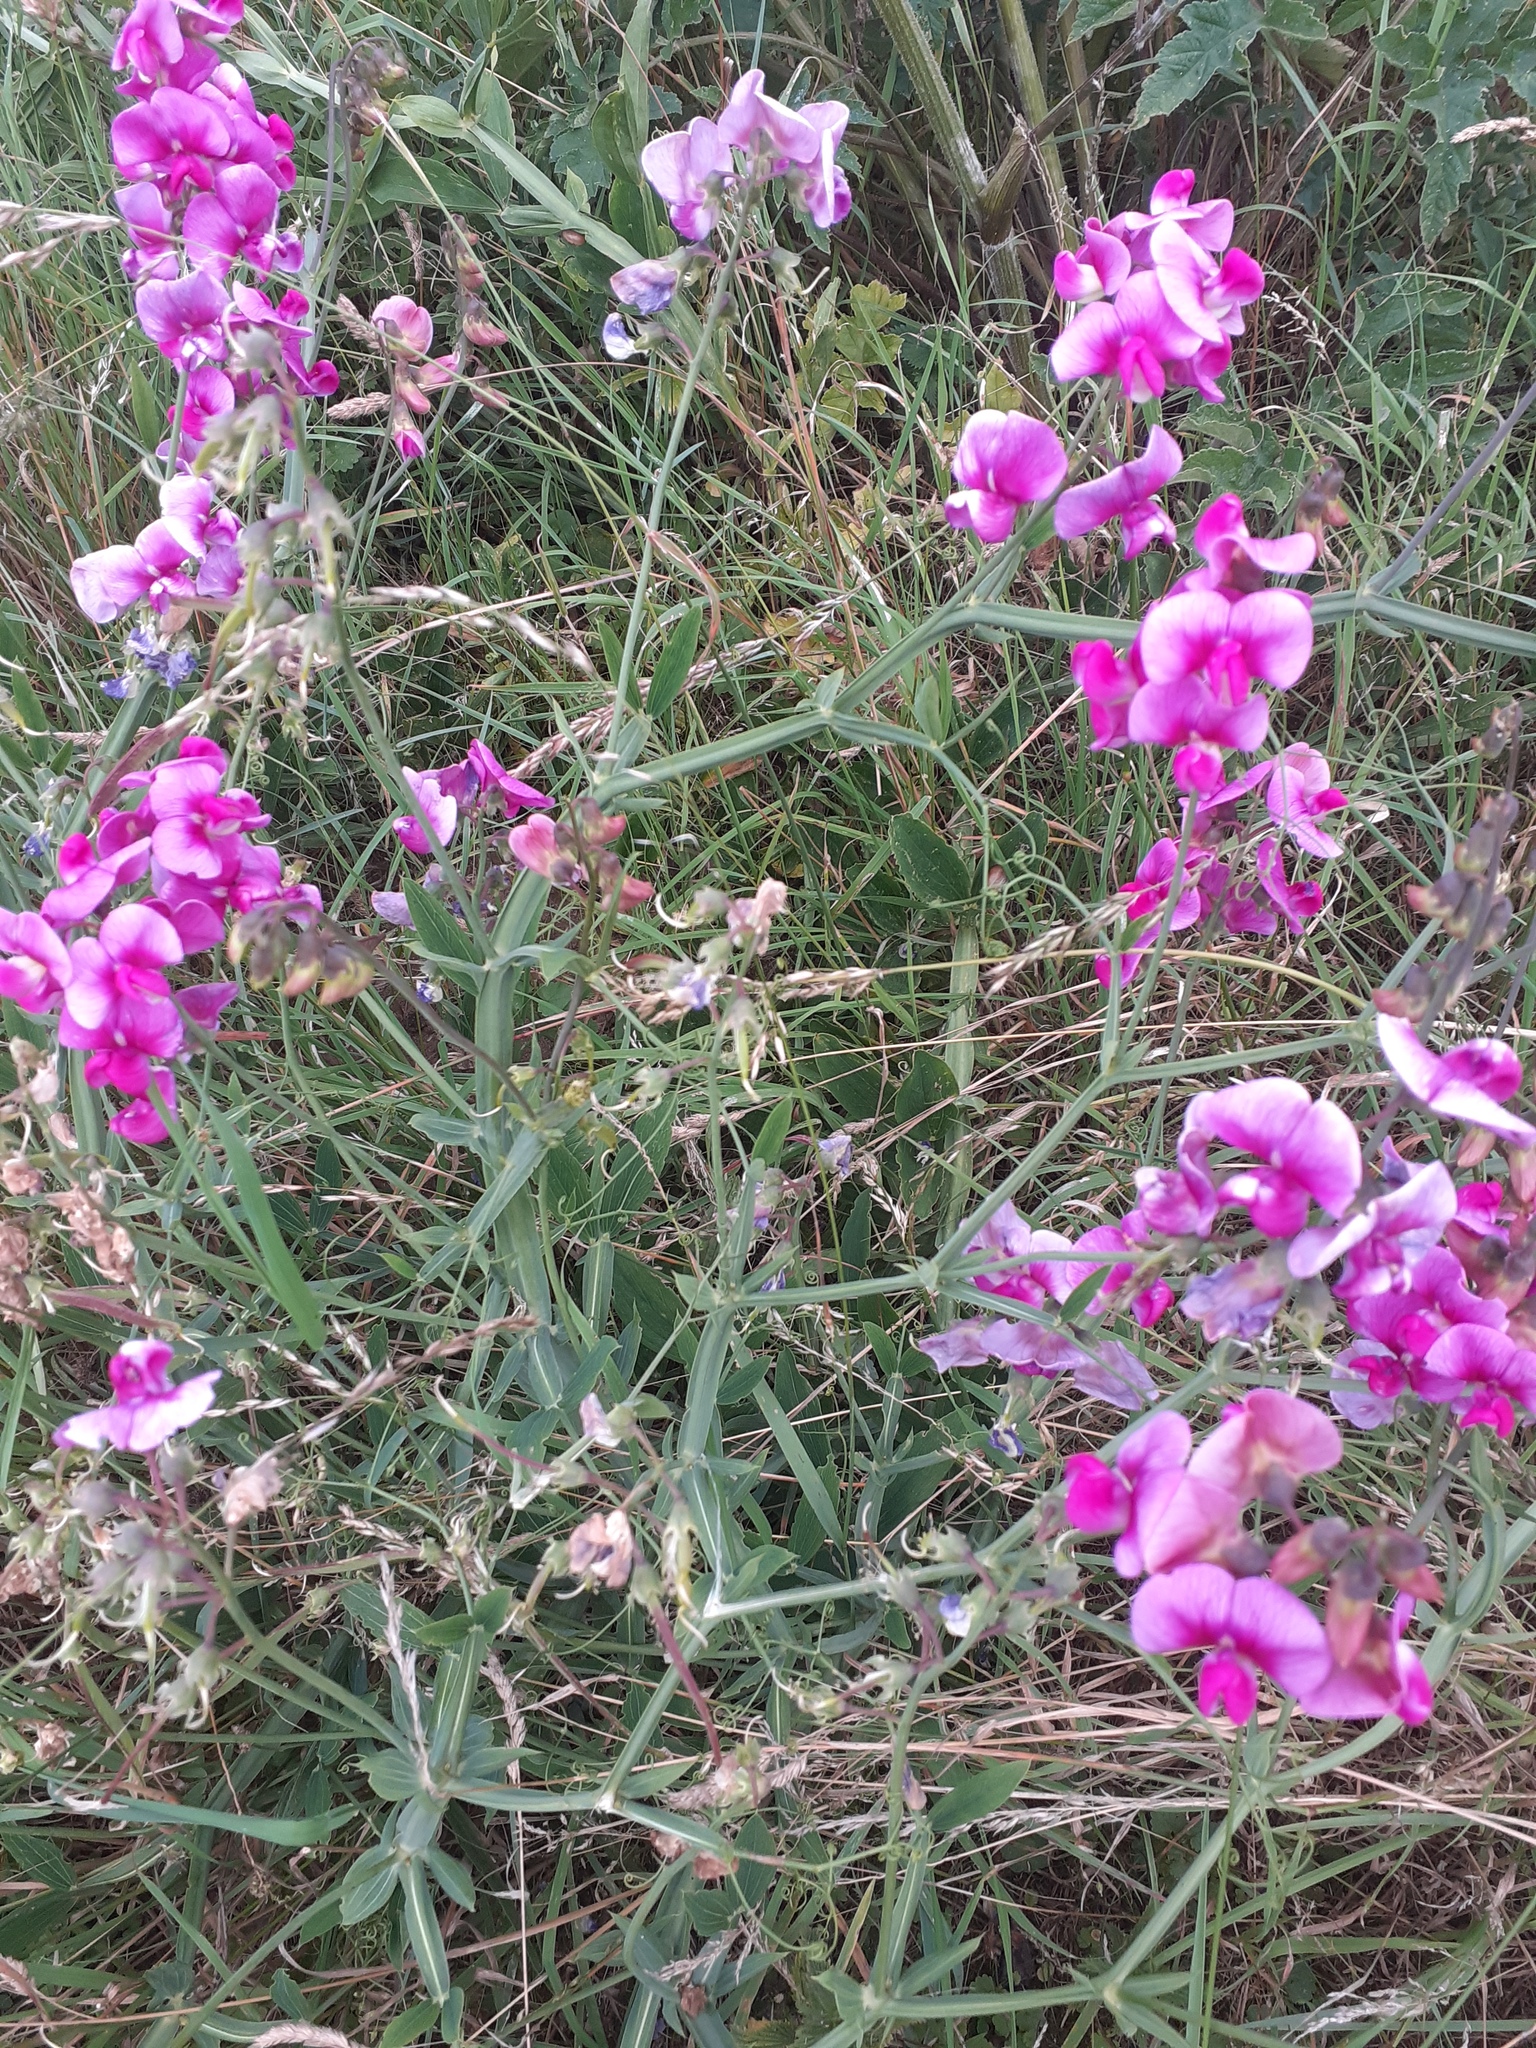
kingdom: Plantae
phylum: Tracheophyta
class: Magnoliopsida
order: Fabales
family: Fabaceae
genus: Lathyrus
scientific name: Lathyrus latifolius
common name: Perennial pea
